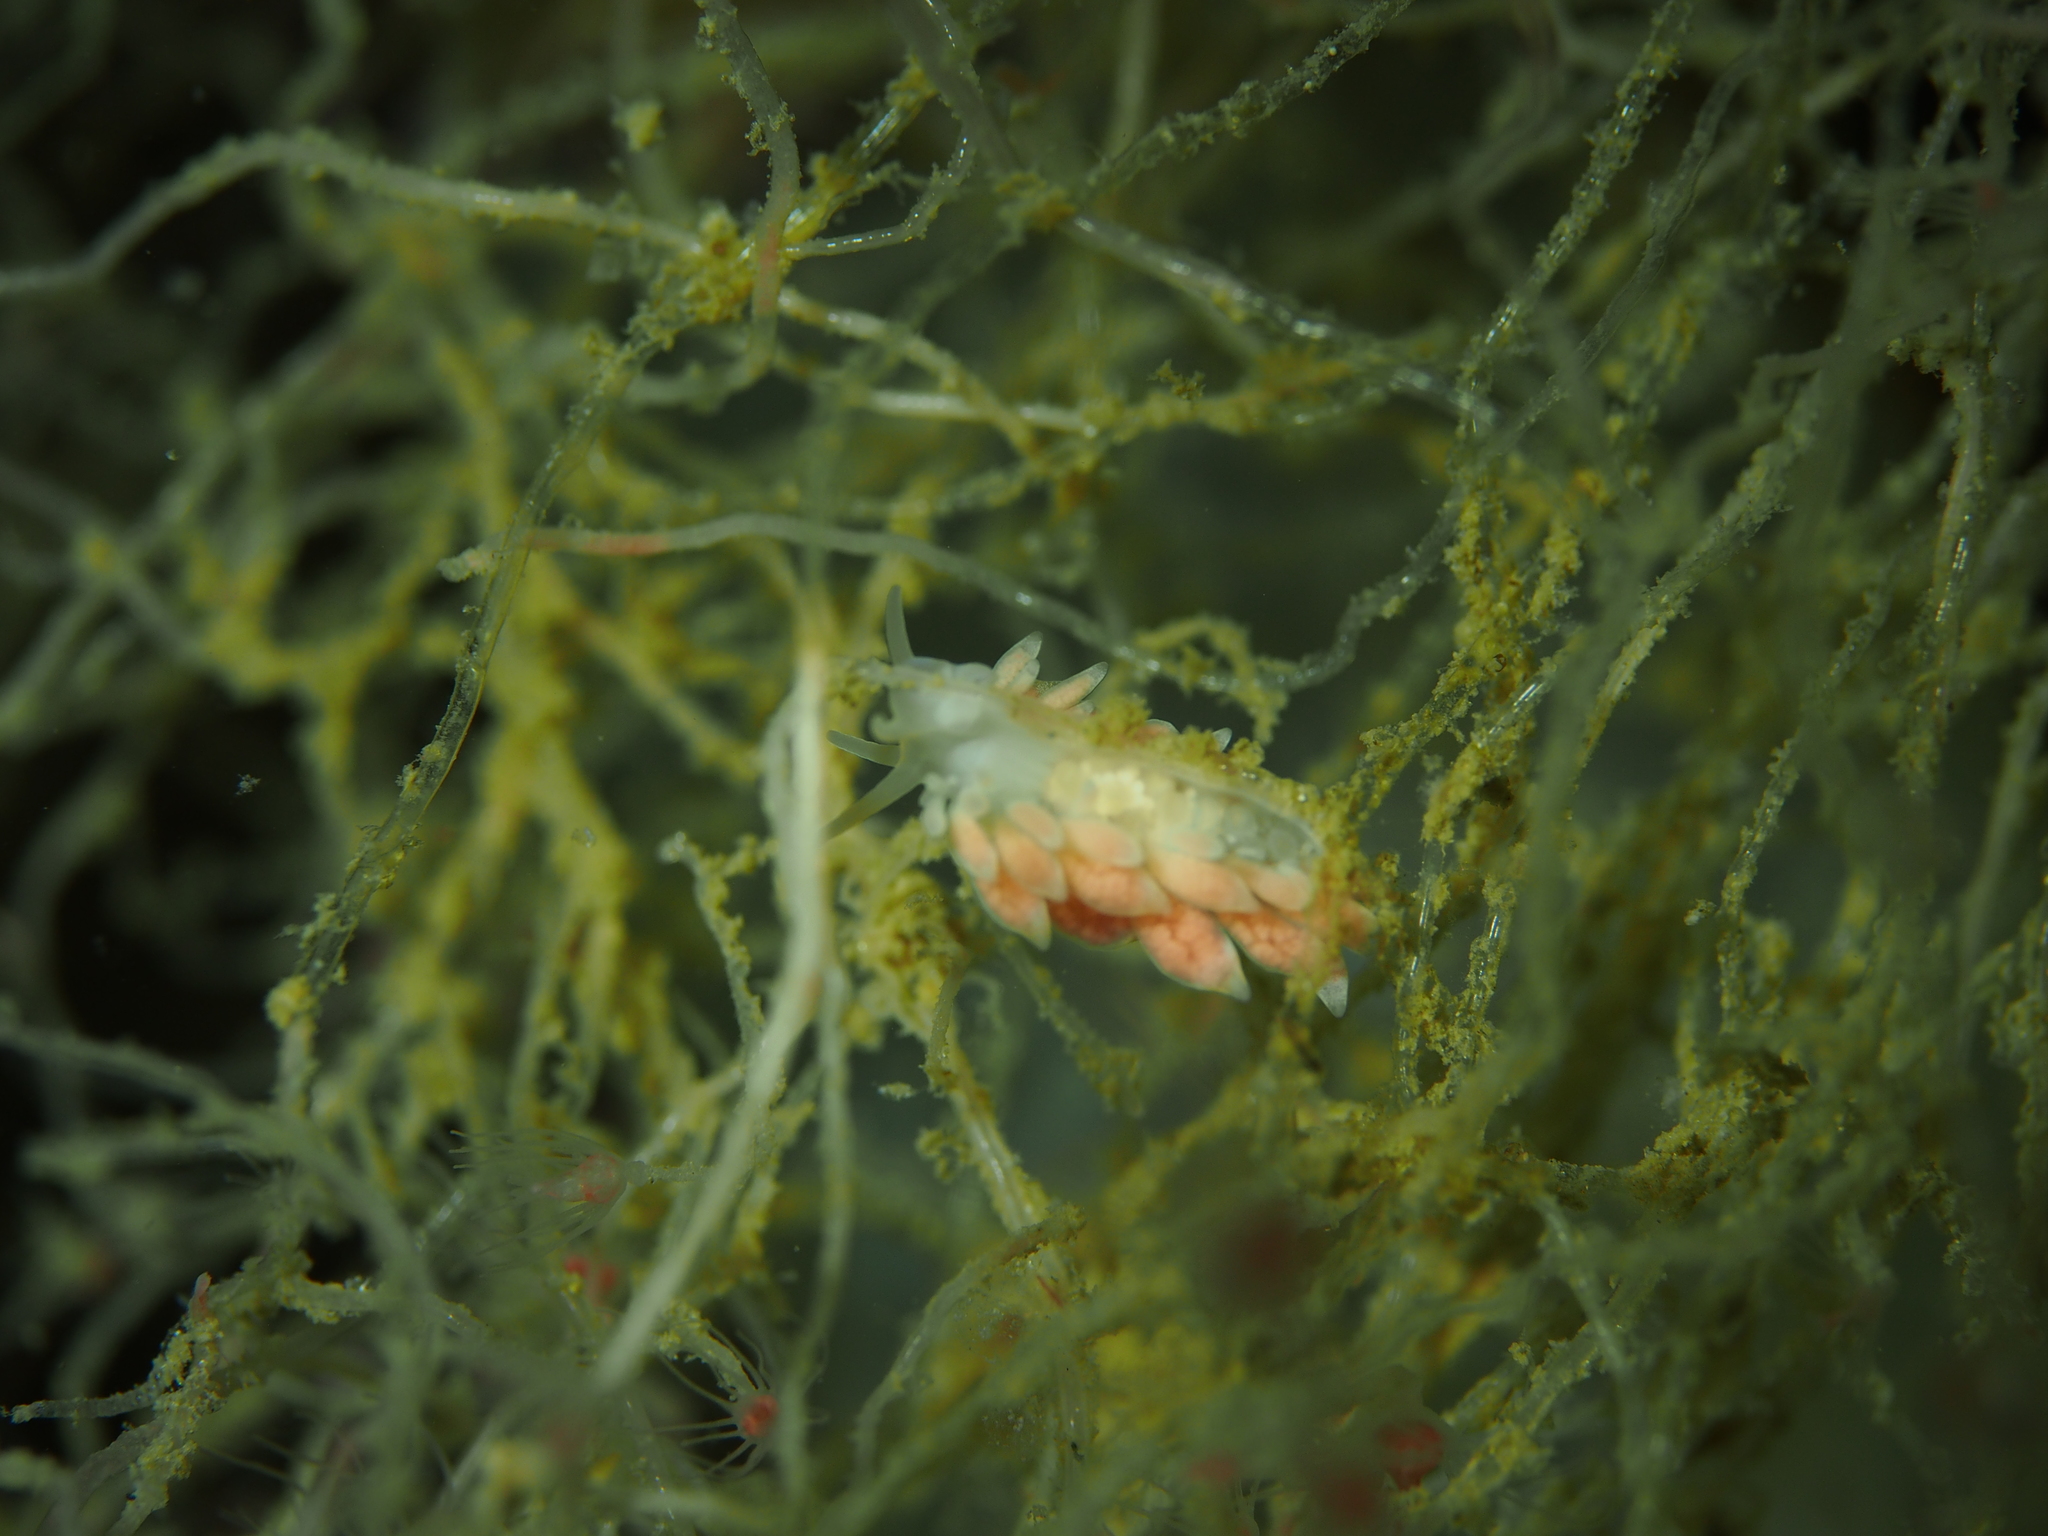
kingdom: Animalia
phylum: Mollusca
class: Gastropoda
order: Nudibranchia
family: Trinchesiidae
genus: Catriona
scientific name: Catriona aurantia
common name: Corange-tip cuthona
